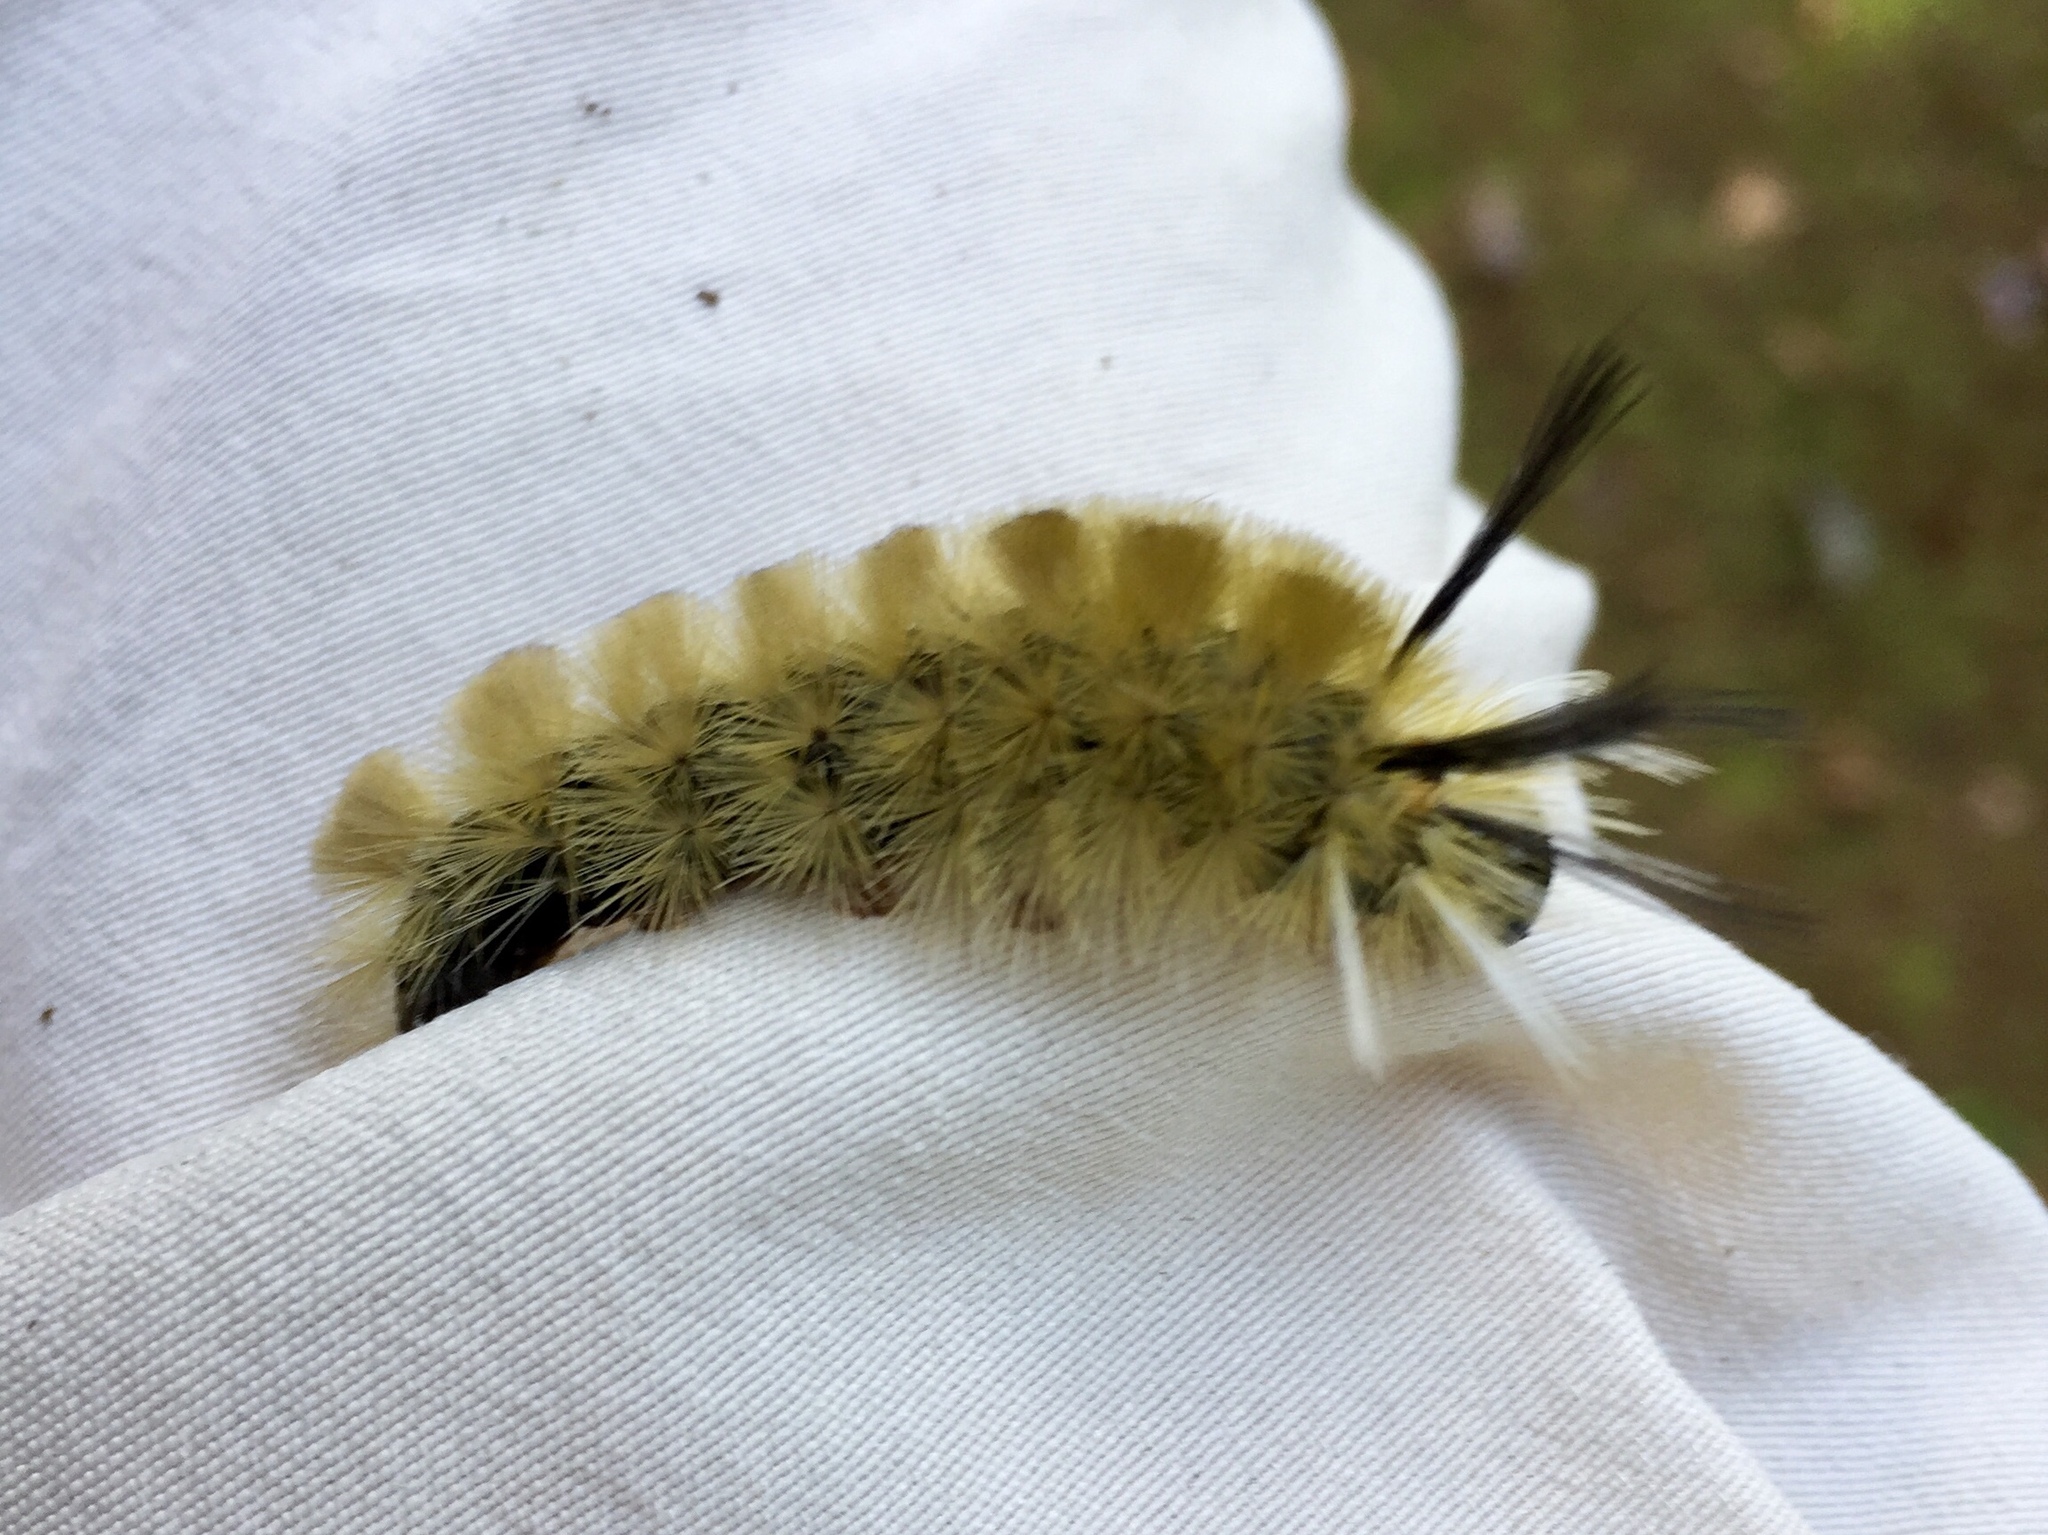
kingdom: Animalia
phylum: Arthropoda
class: Insecta
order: Lepidoptera
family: Erebidae
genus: Halysidota
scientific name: Halysidota tessellaris
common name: Banded tussock moth
